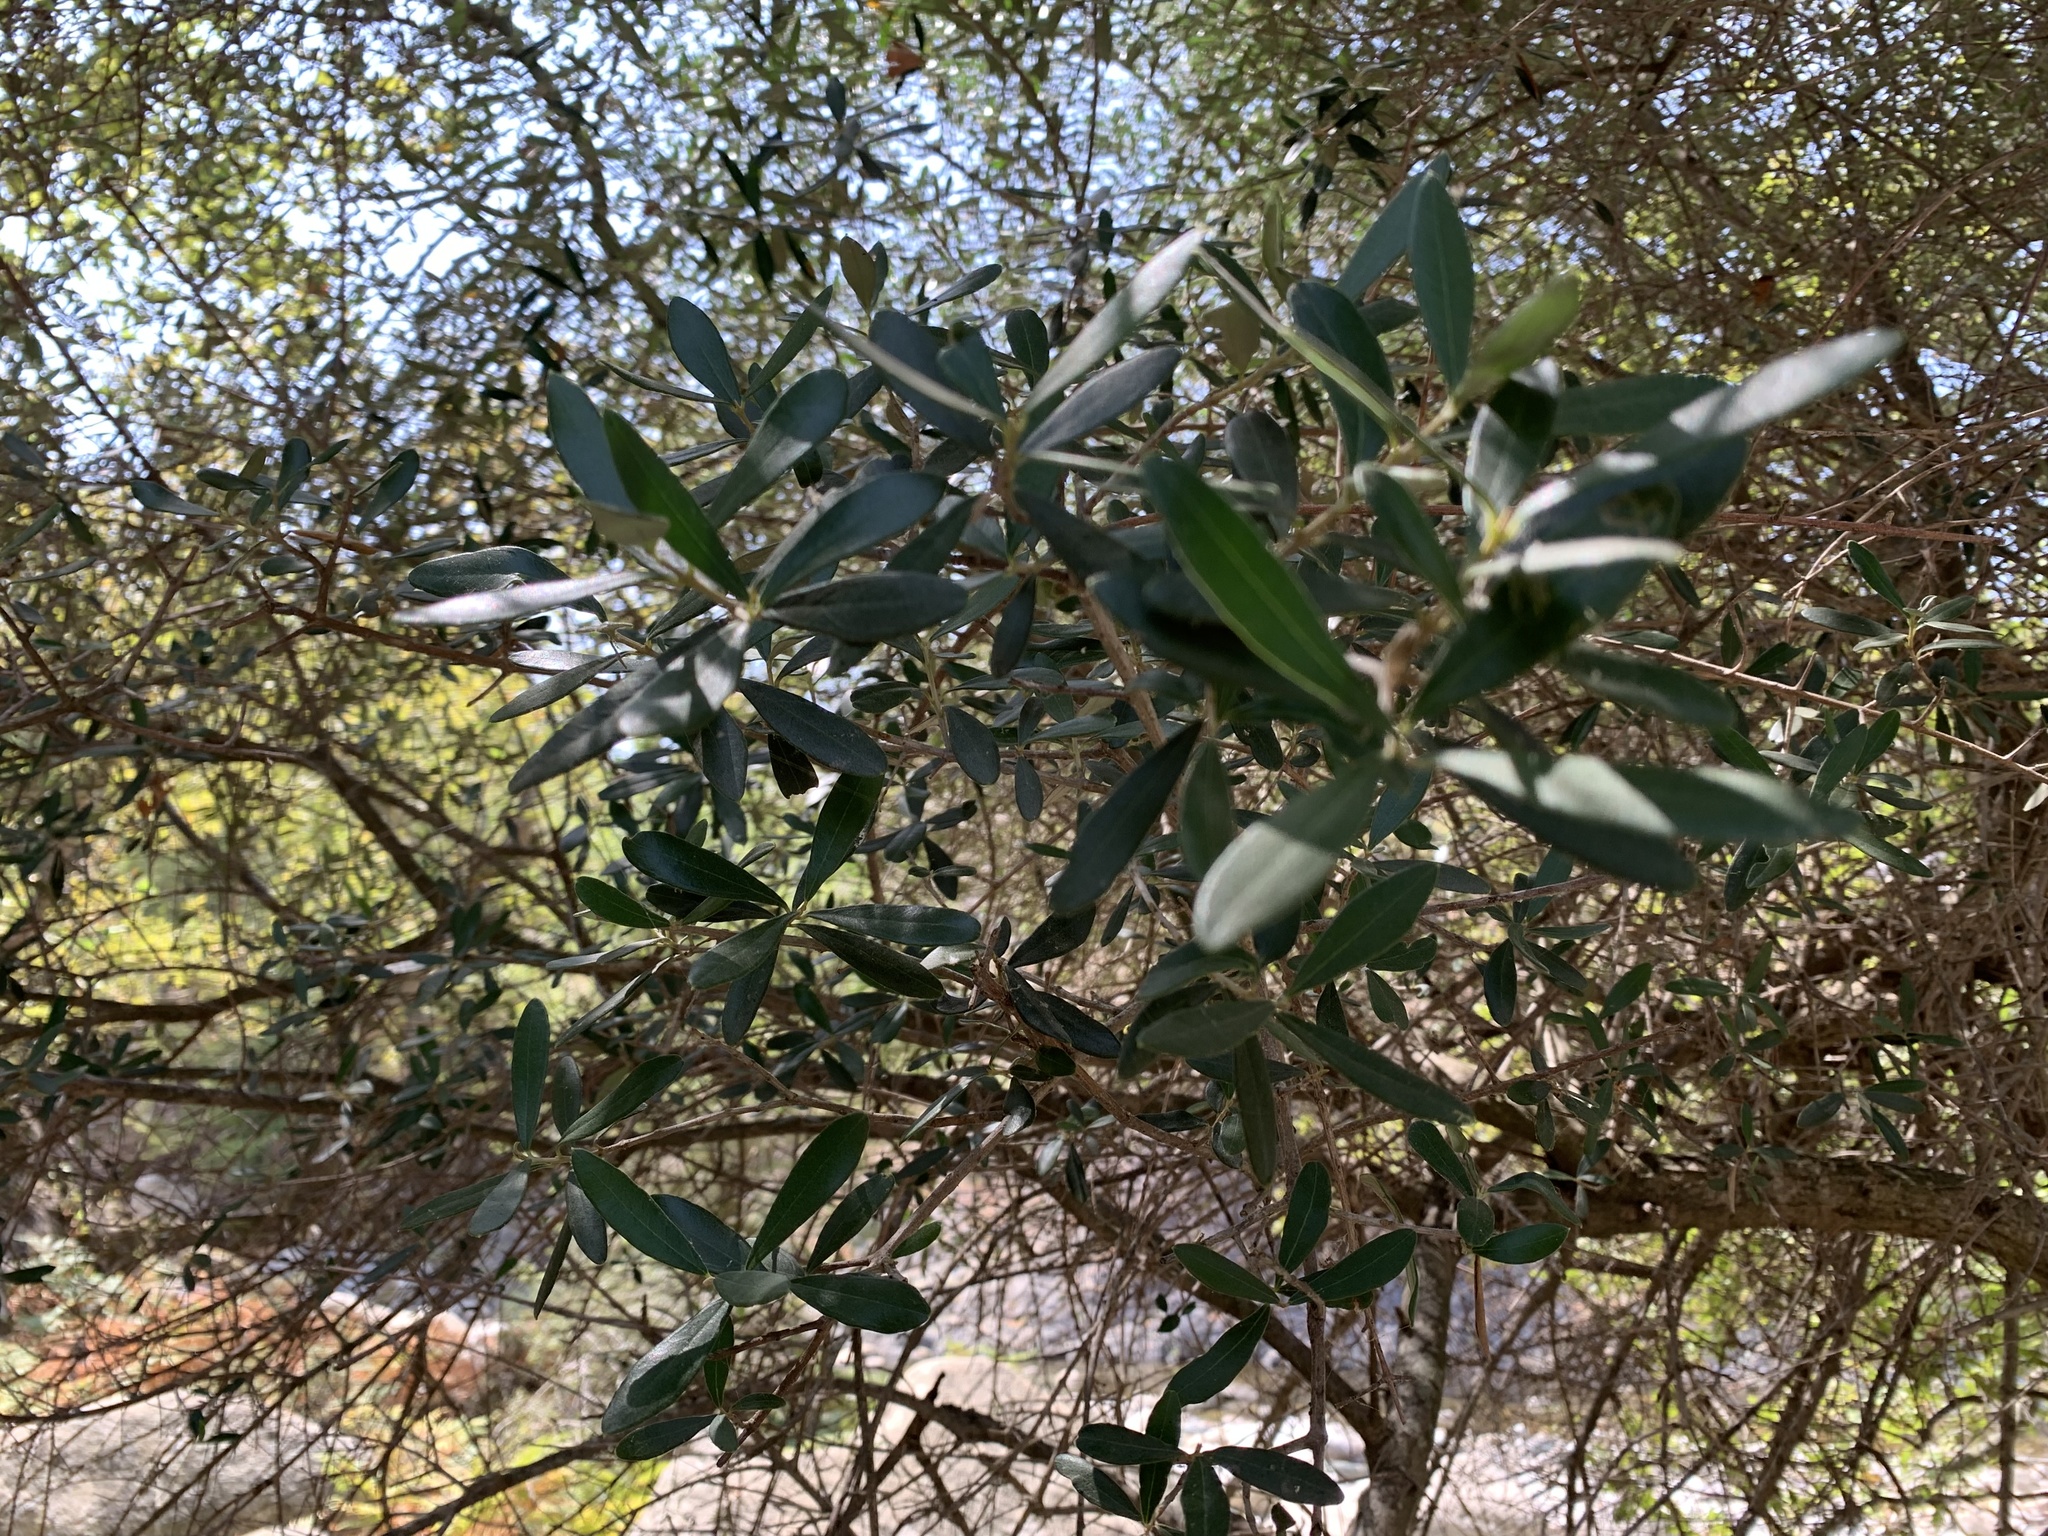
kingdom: Plantae
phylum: Tracheophyta
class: Magnoliopsida
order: Lamiales
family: Oleaceae
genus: Olea
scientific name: Olea europaea
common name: Olive
